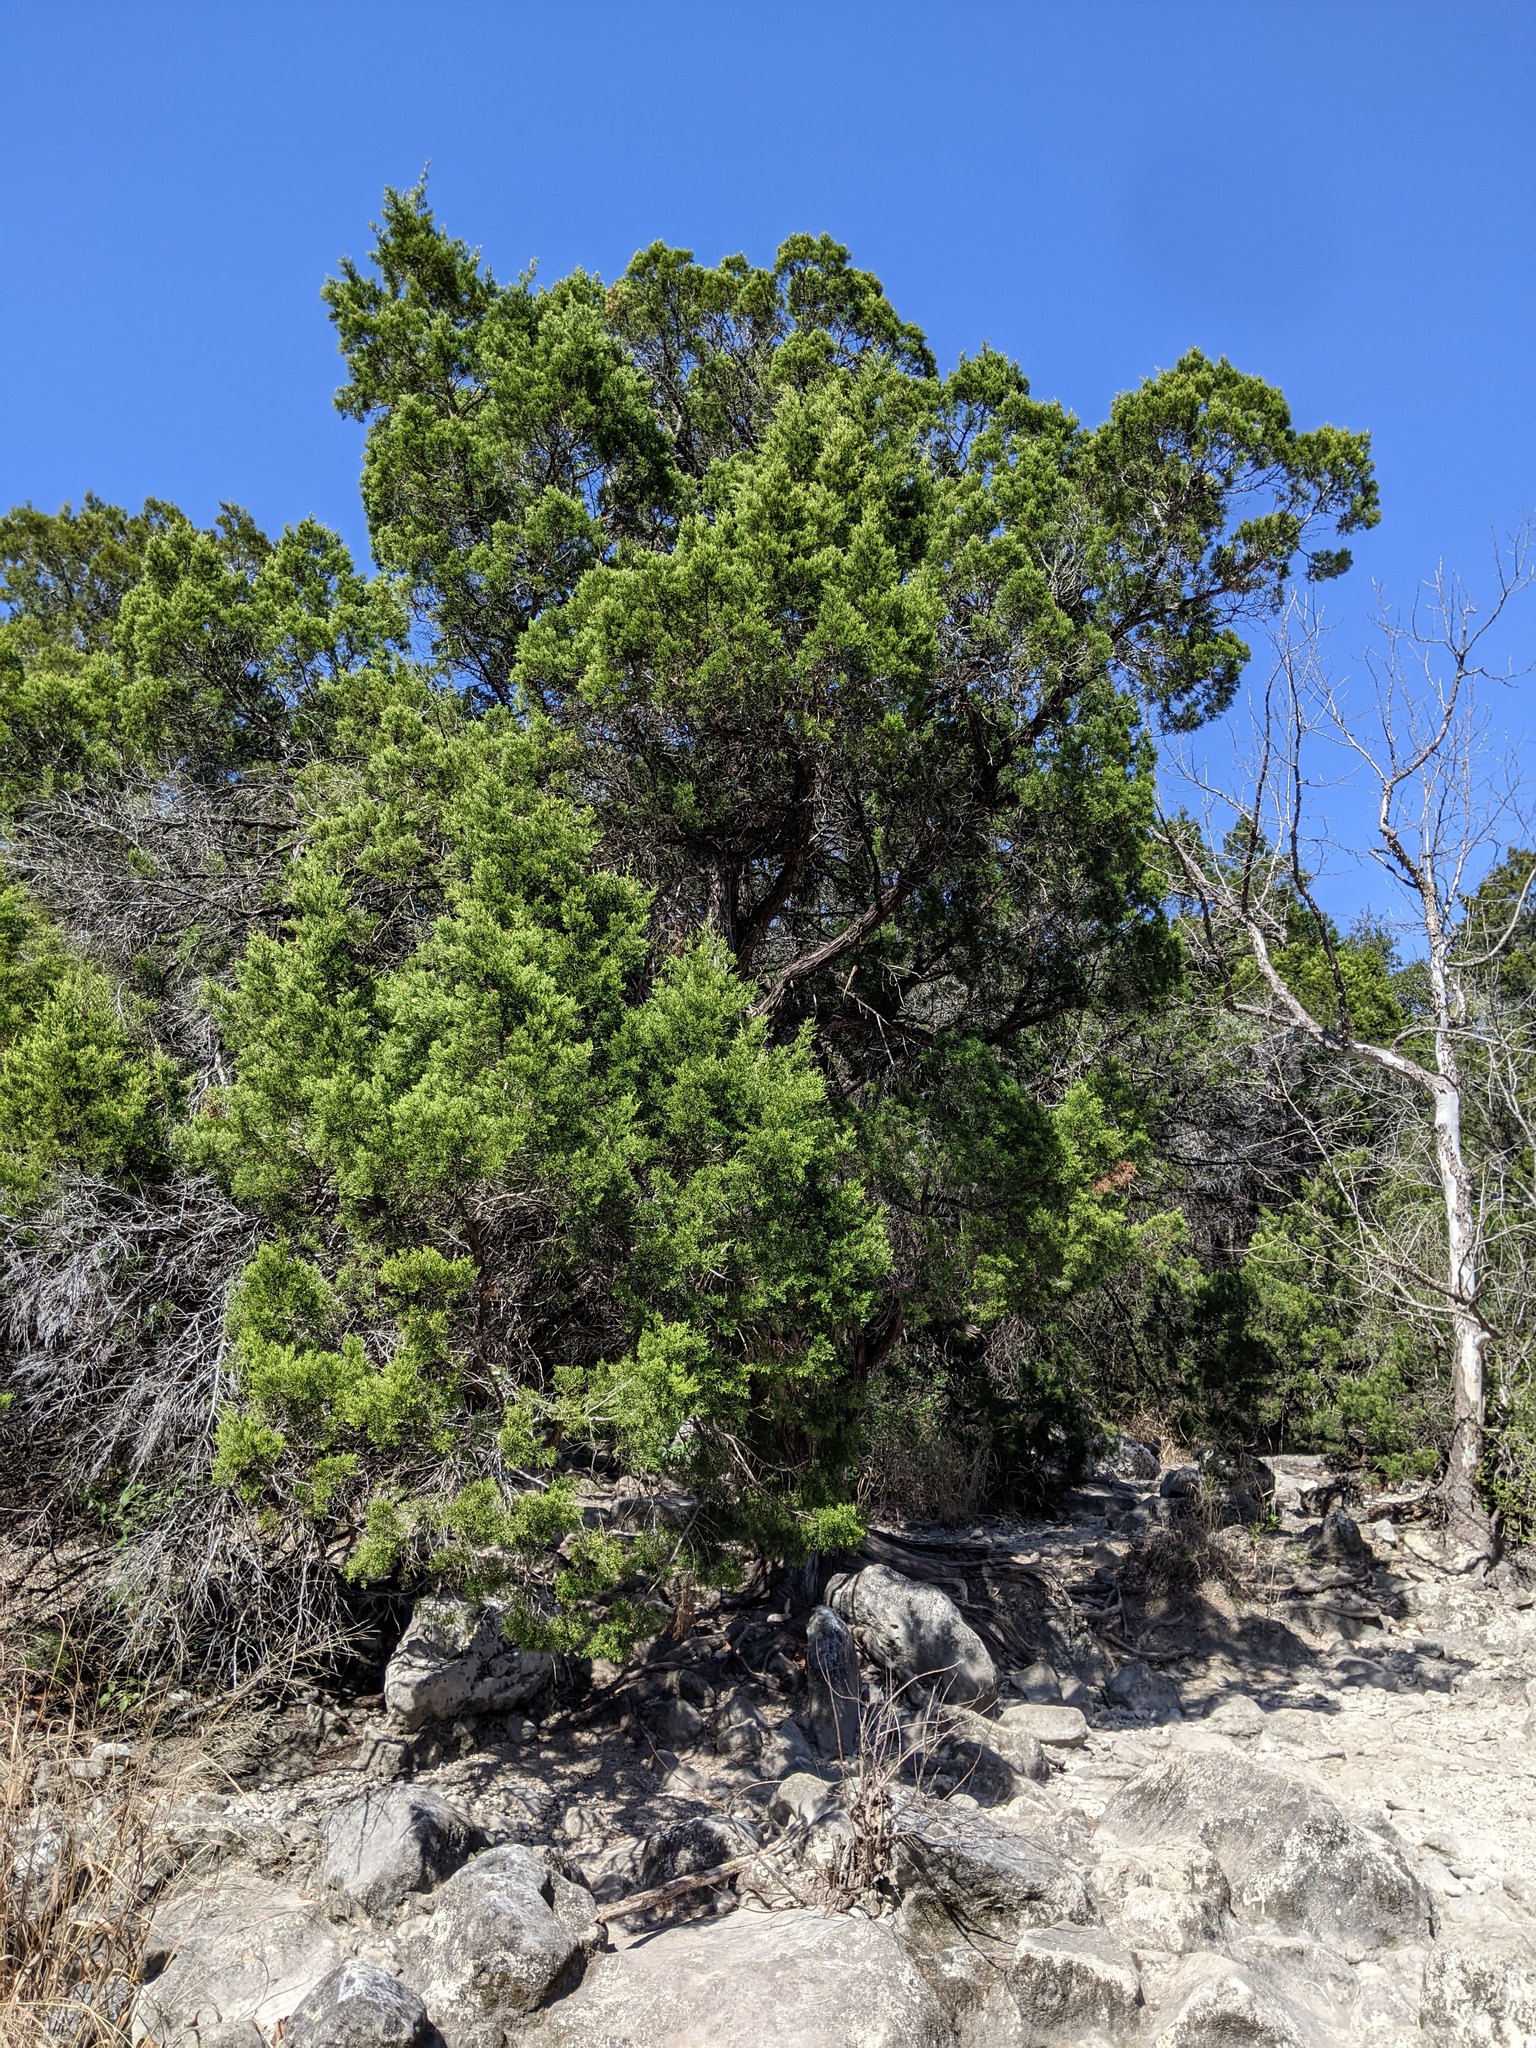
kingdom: Plantae
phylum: Tracheophyta
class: Pinopsida
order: Pinales
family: Cupressaceae
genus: Juniperus
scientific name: Juniperus ashei
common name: Mexican juniper
